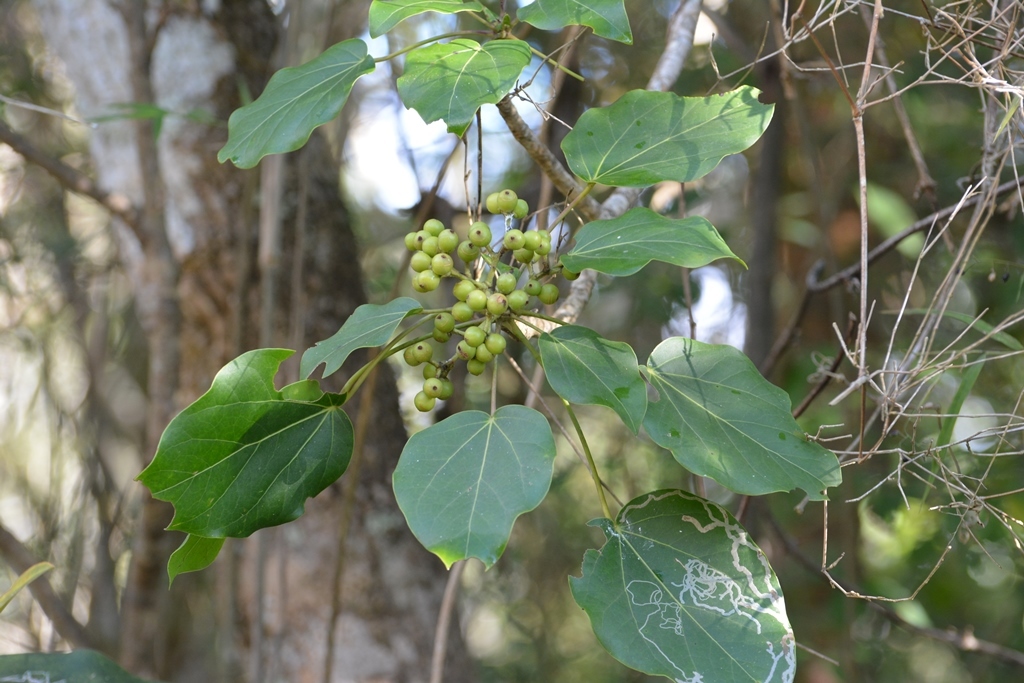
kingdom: Plantae
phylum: Tracheophyta
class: Magnoliopsida
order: Apiales
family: Araliaceae
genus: Oreopanax
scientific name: Oreopanax platyphyllus
